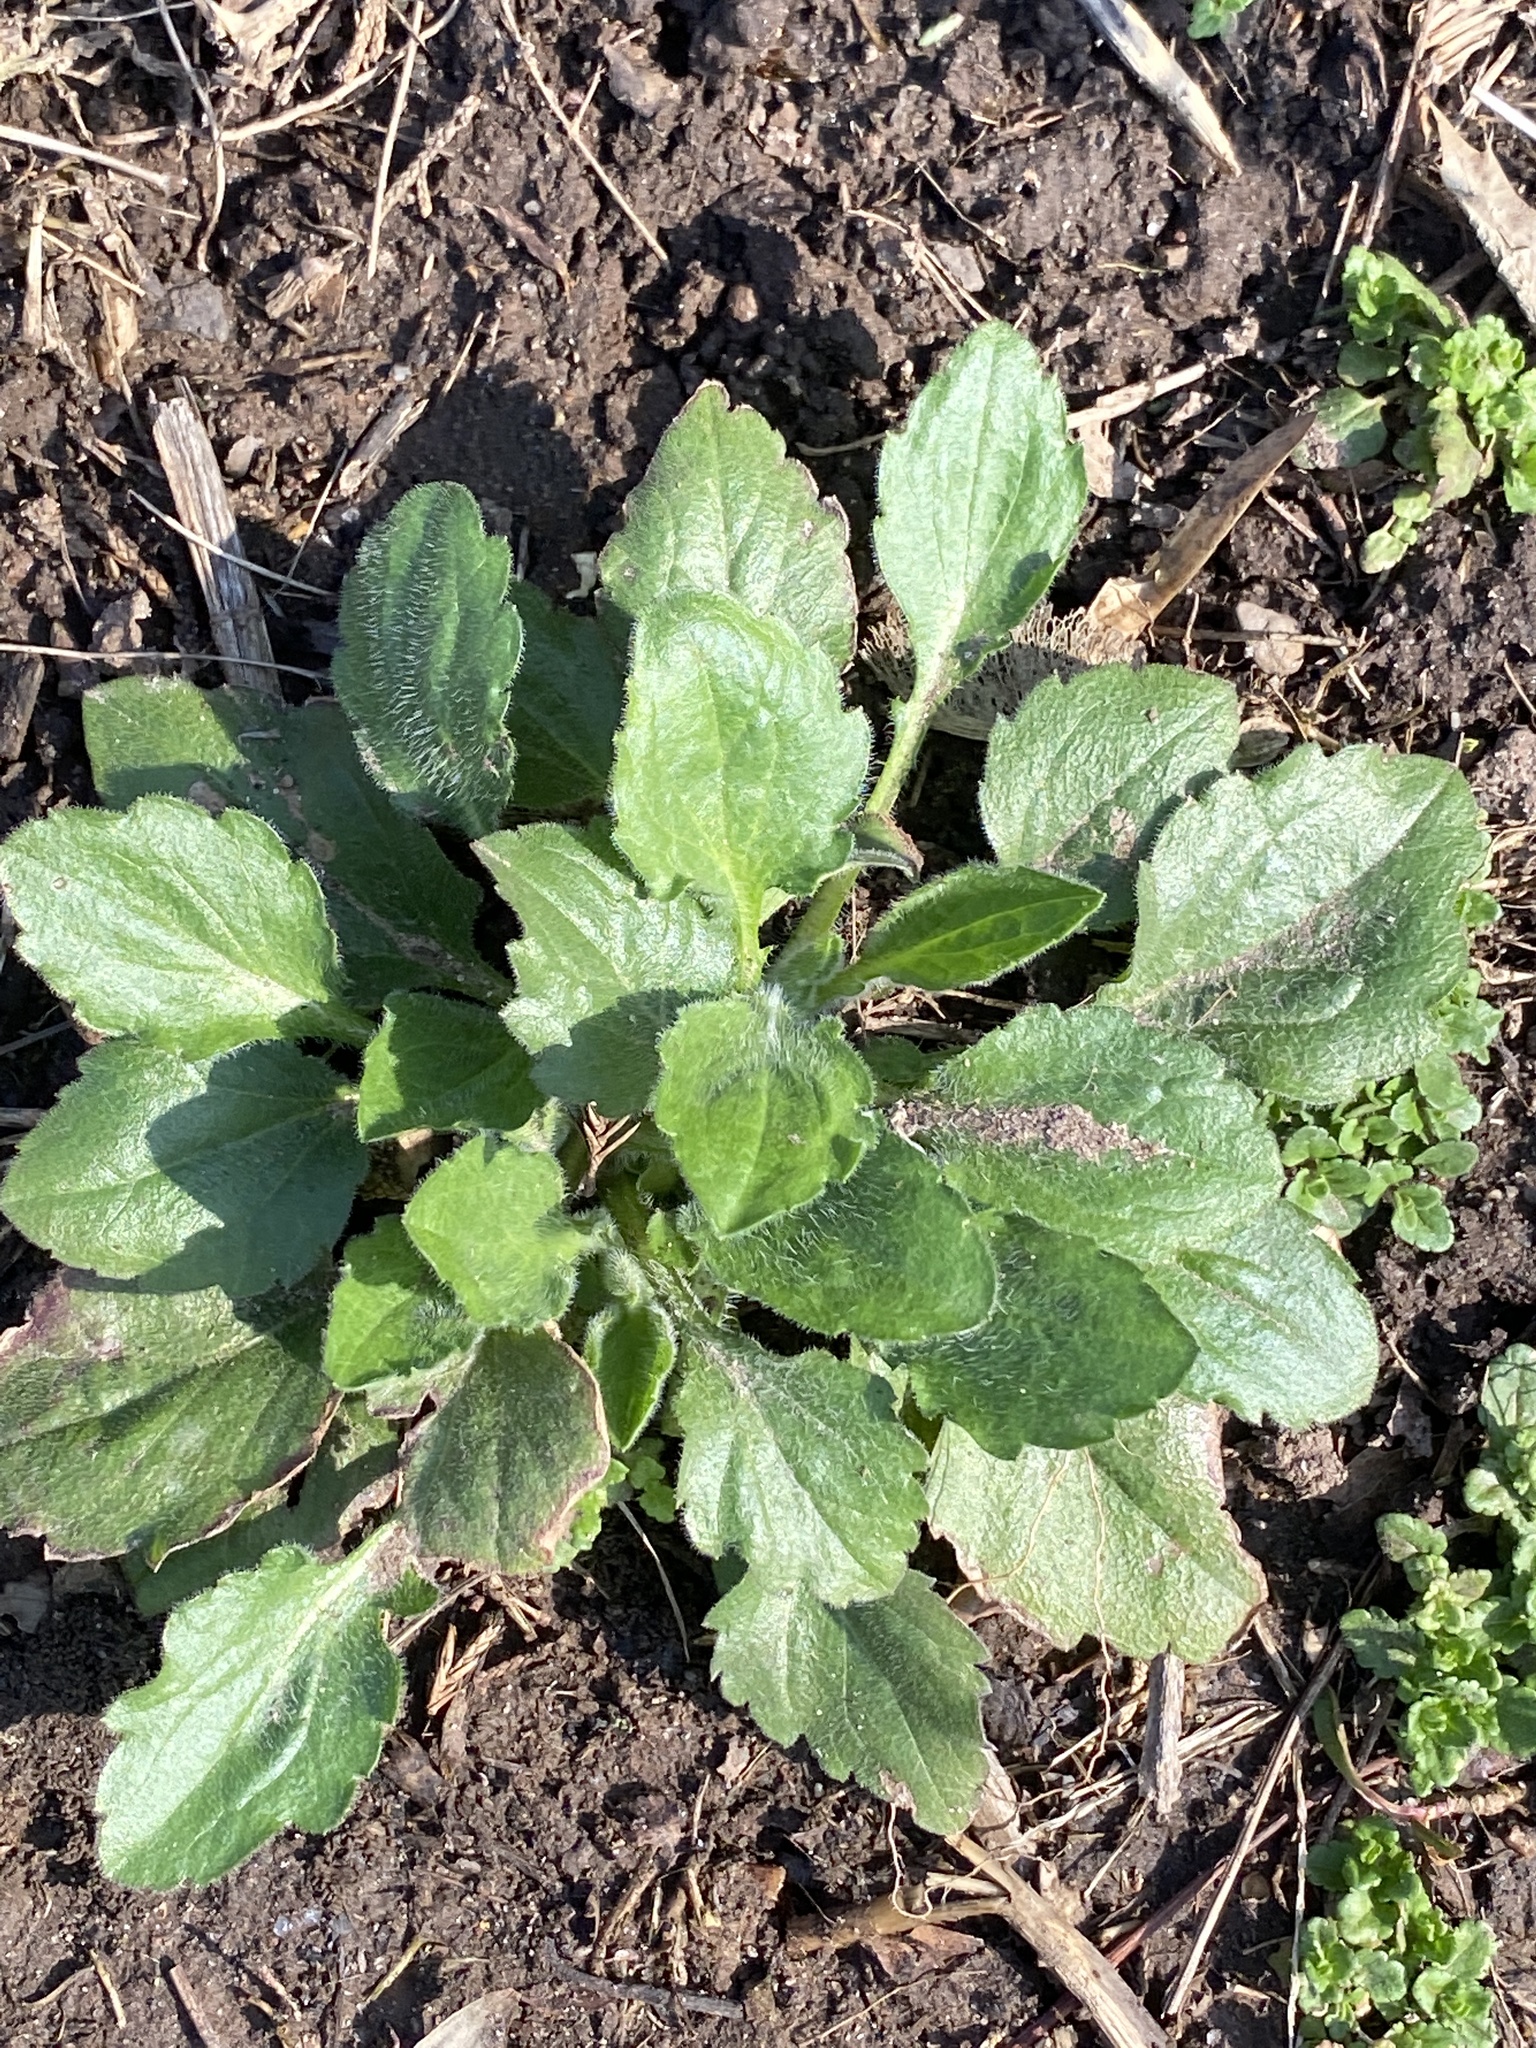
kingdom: Plantae
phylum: Tracheophyta
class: Magnoliopsida
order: Asterales
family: Asteraceae
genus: Erigeron
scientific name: Erigeron annuus
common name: Tall fleabane
